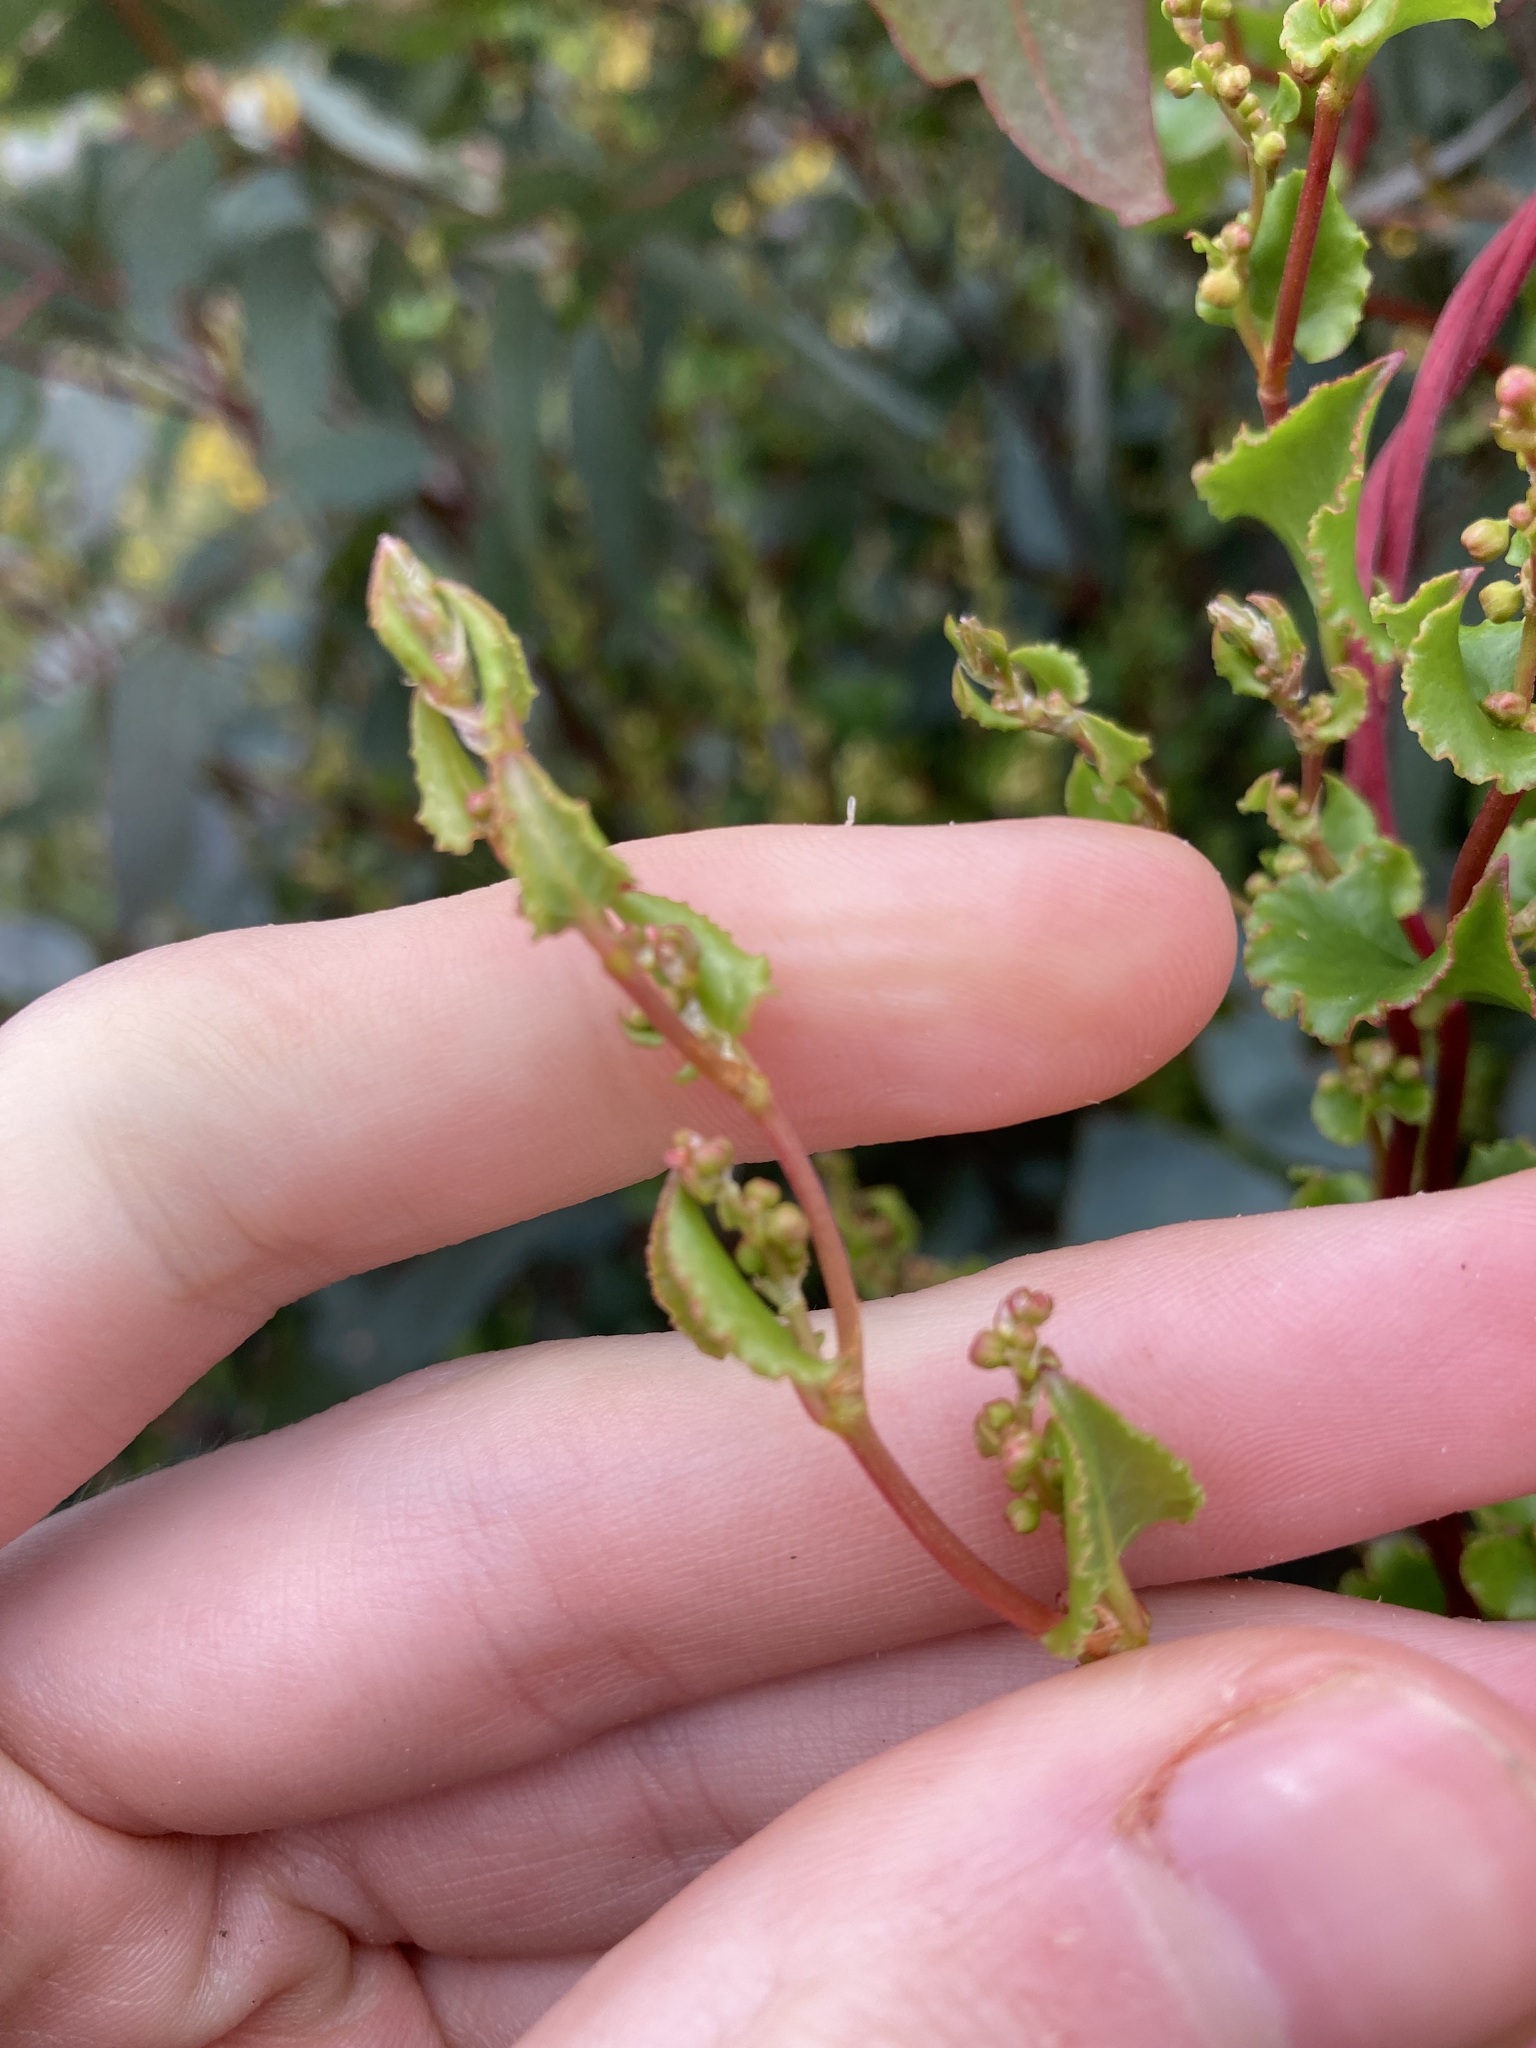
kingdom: Plantae
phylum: Tracheophyta
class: Magnoliopsida
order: Caryophyllales
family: Polygonaceae
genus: Muehlenbeckia
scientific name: Muehlenbeckia adpressa
